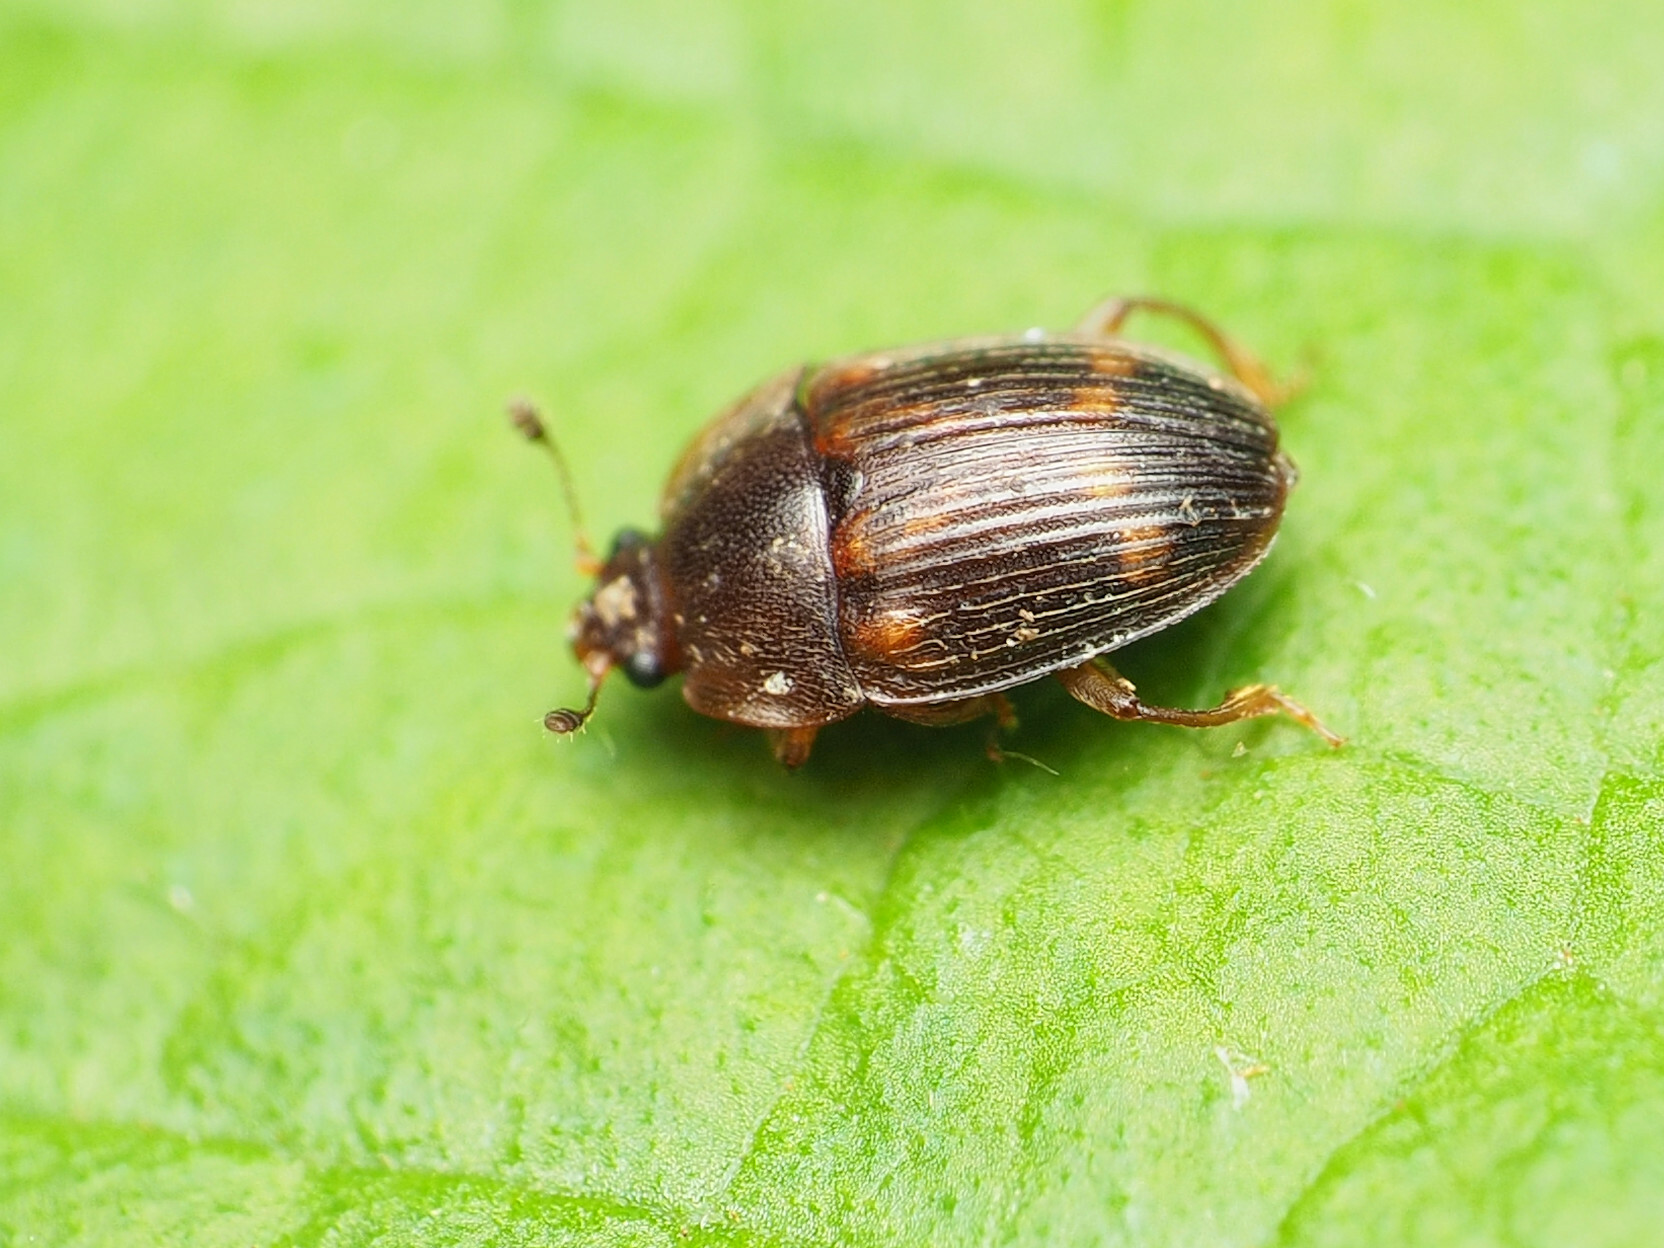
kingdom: Animalia
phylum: Arthropoda
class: Insecta
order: Coleoptera
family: Nitidulidae
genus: Stelidota
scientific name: Stelidota geminata
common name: Strawberry sap beetle
